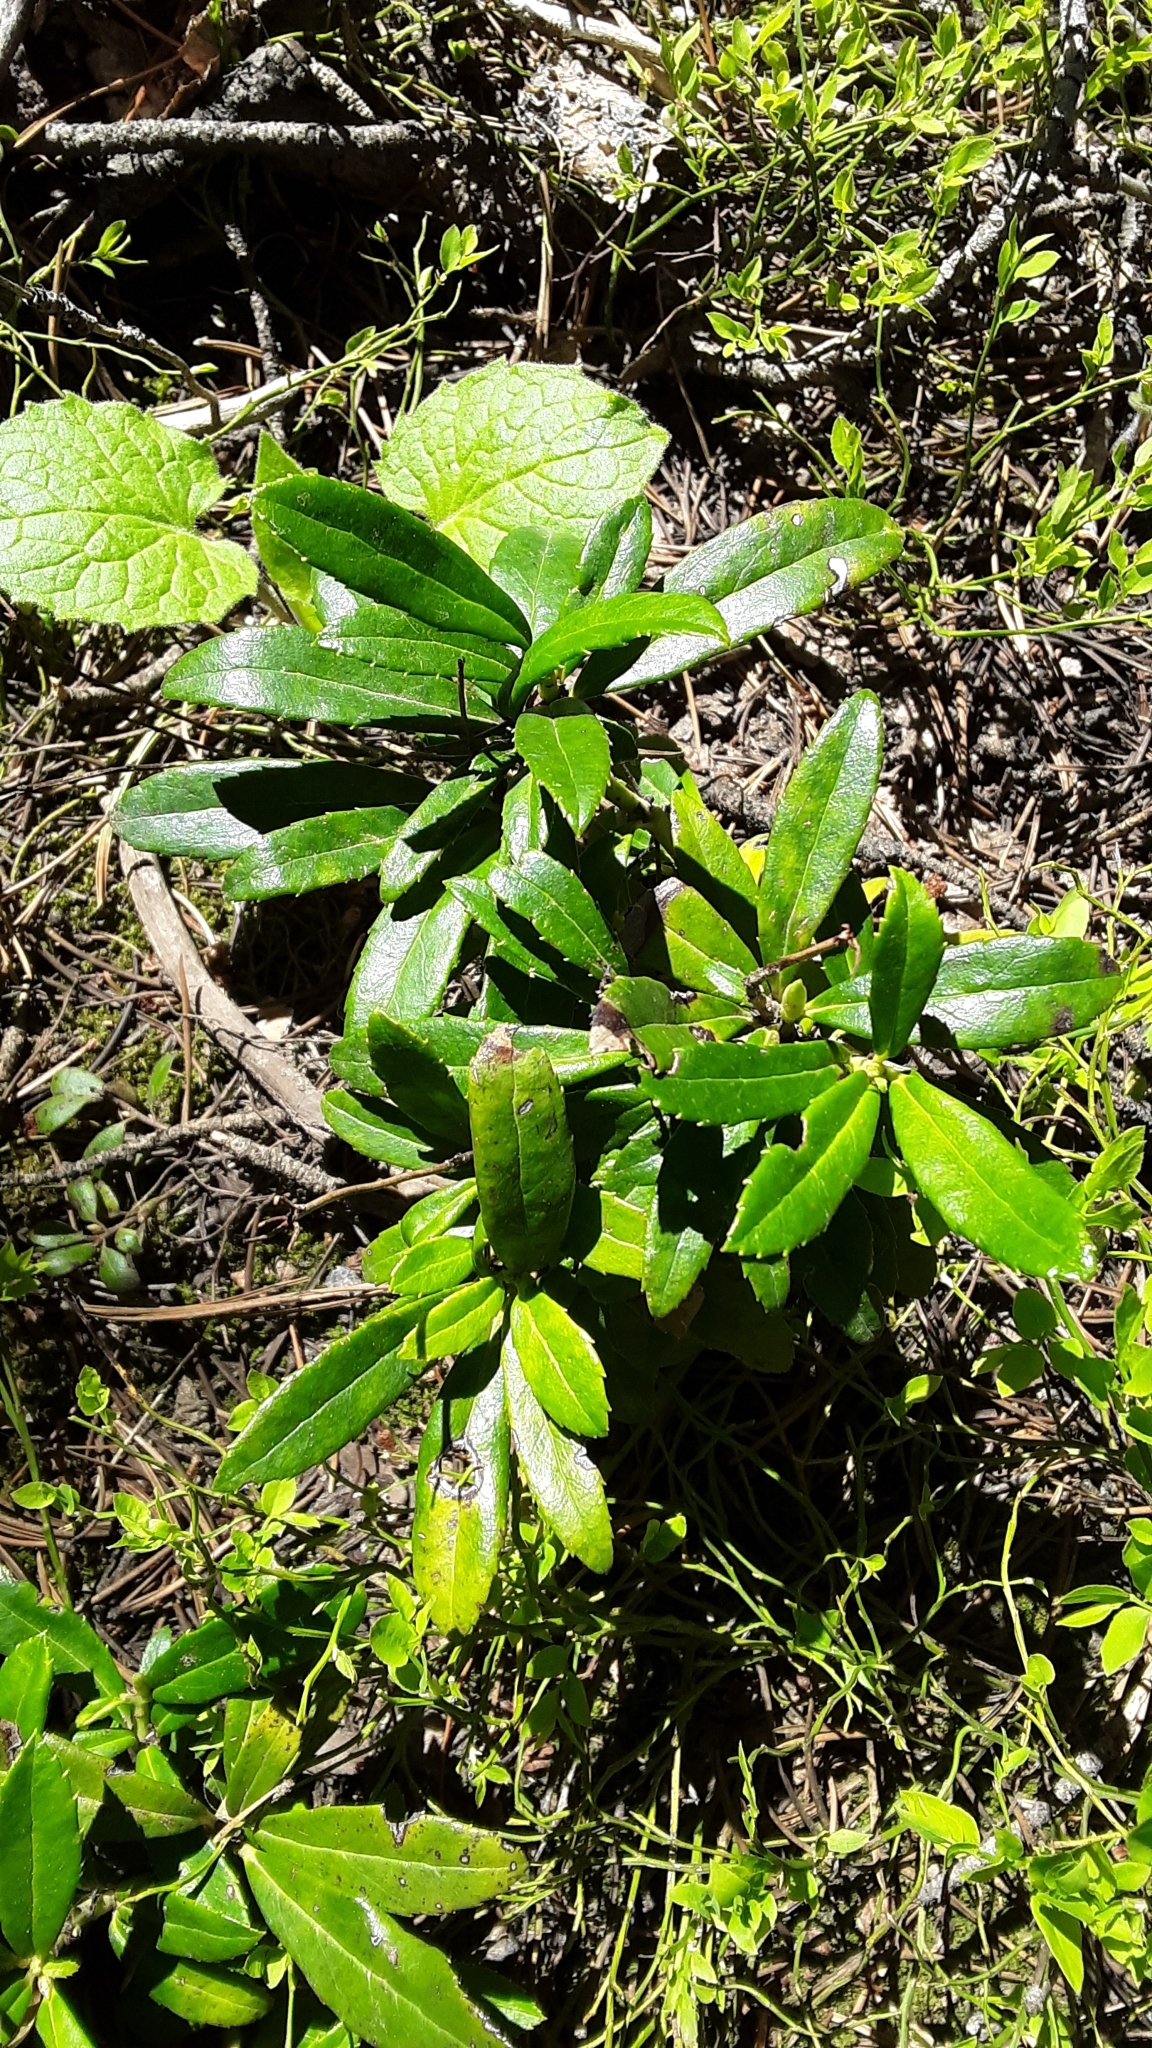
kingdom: Plantae
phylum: Tracheophyta
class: Magnoliopsida
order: Ericales
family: Ericaceae
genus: Chimaphila
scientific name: Chimaphila umbellata
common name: Pipsissewa
